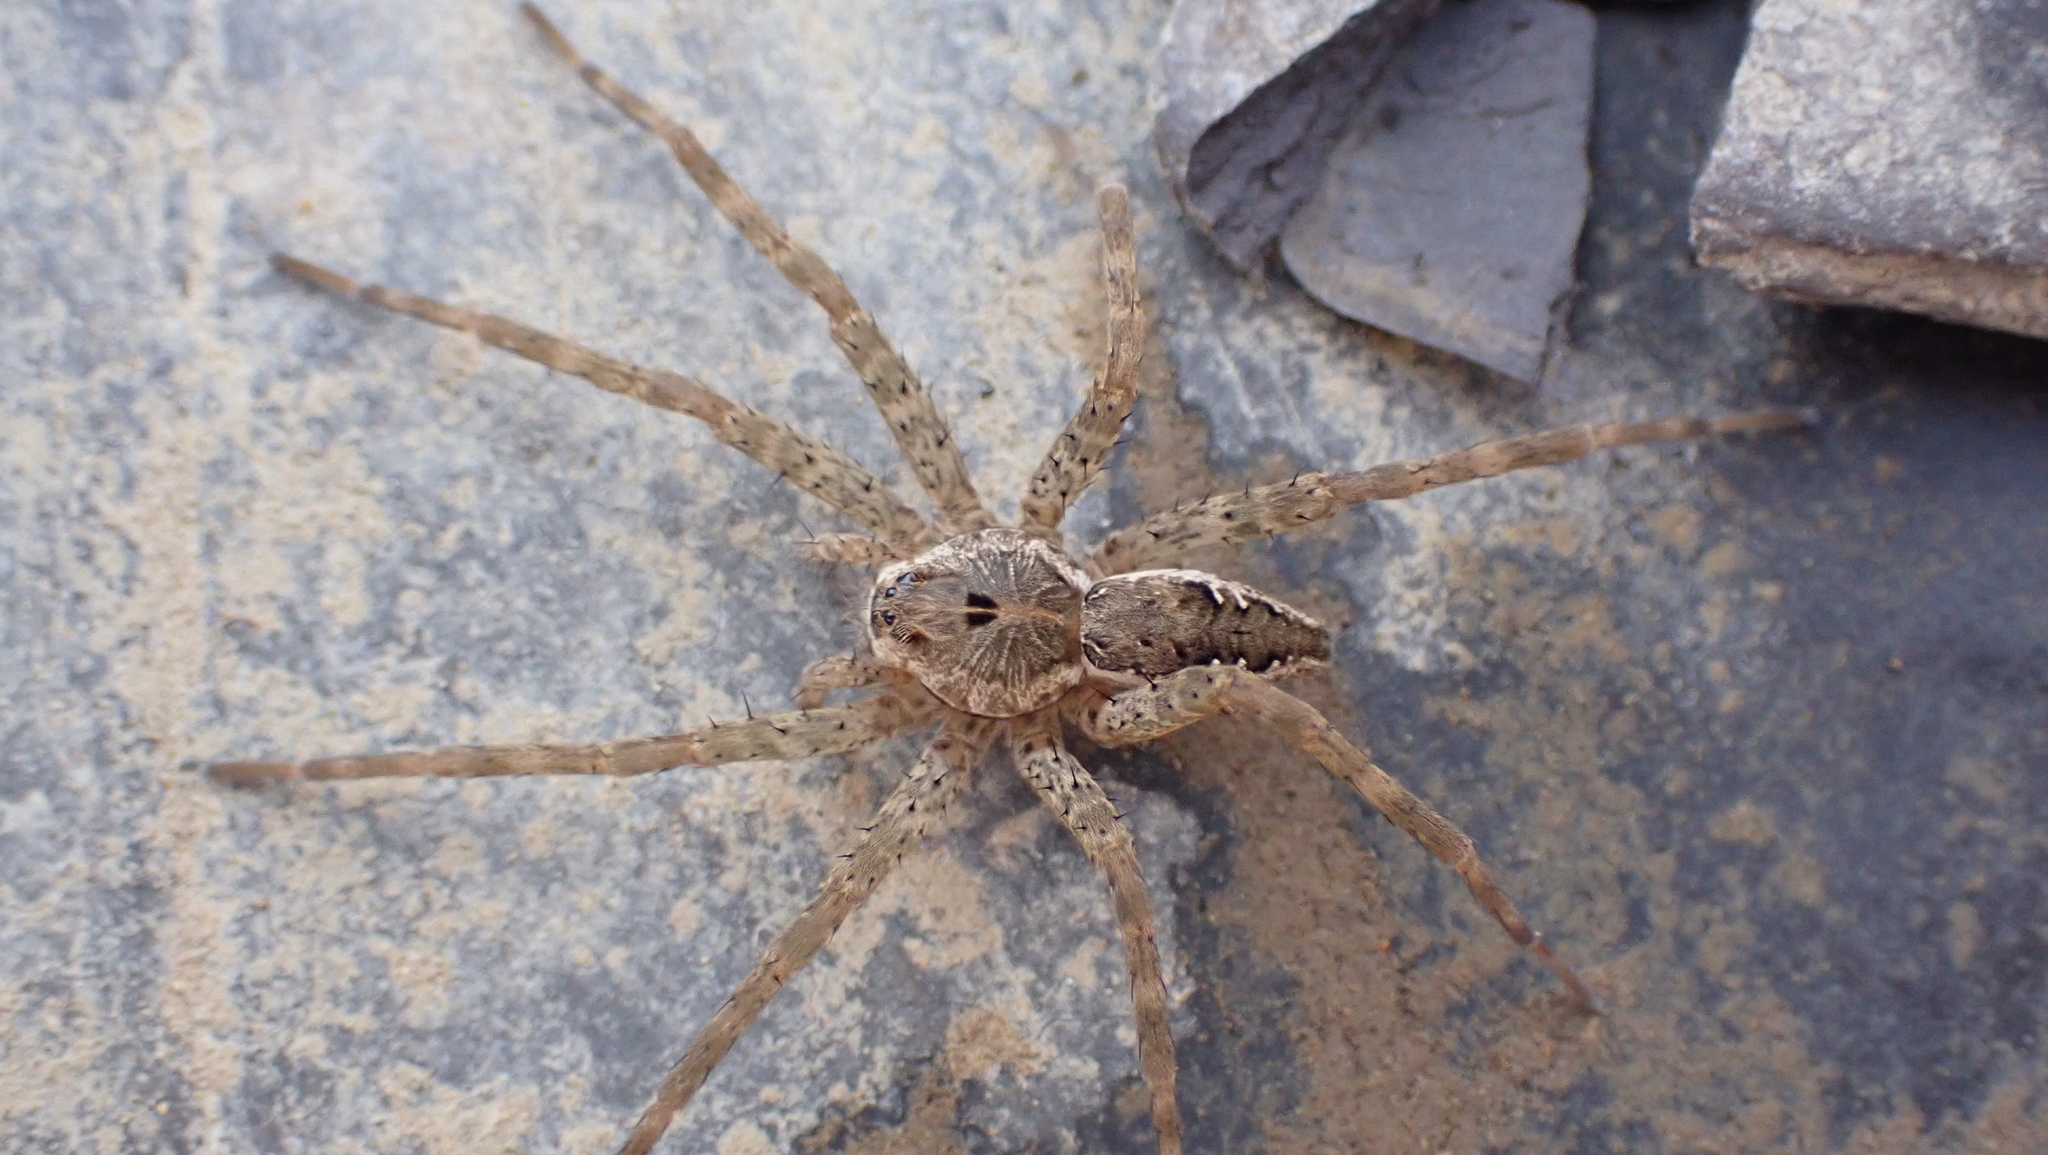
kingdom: Animalia
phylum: Arthropoda
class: Arachnida
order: Araneae
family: Pisauridae
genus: Dolomedes
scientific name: Dolomedes vittatus
